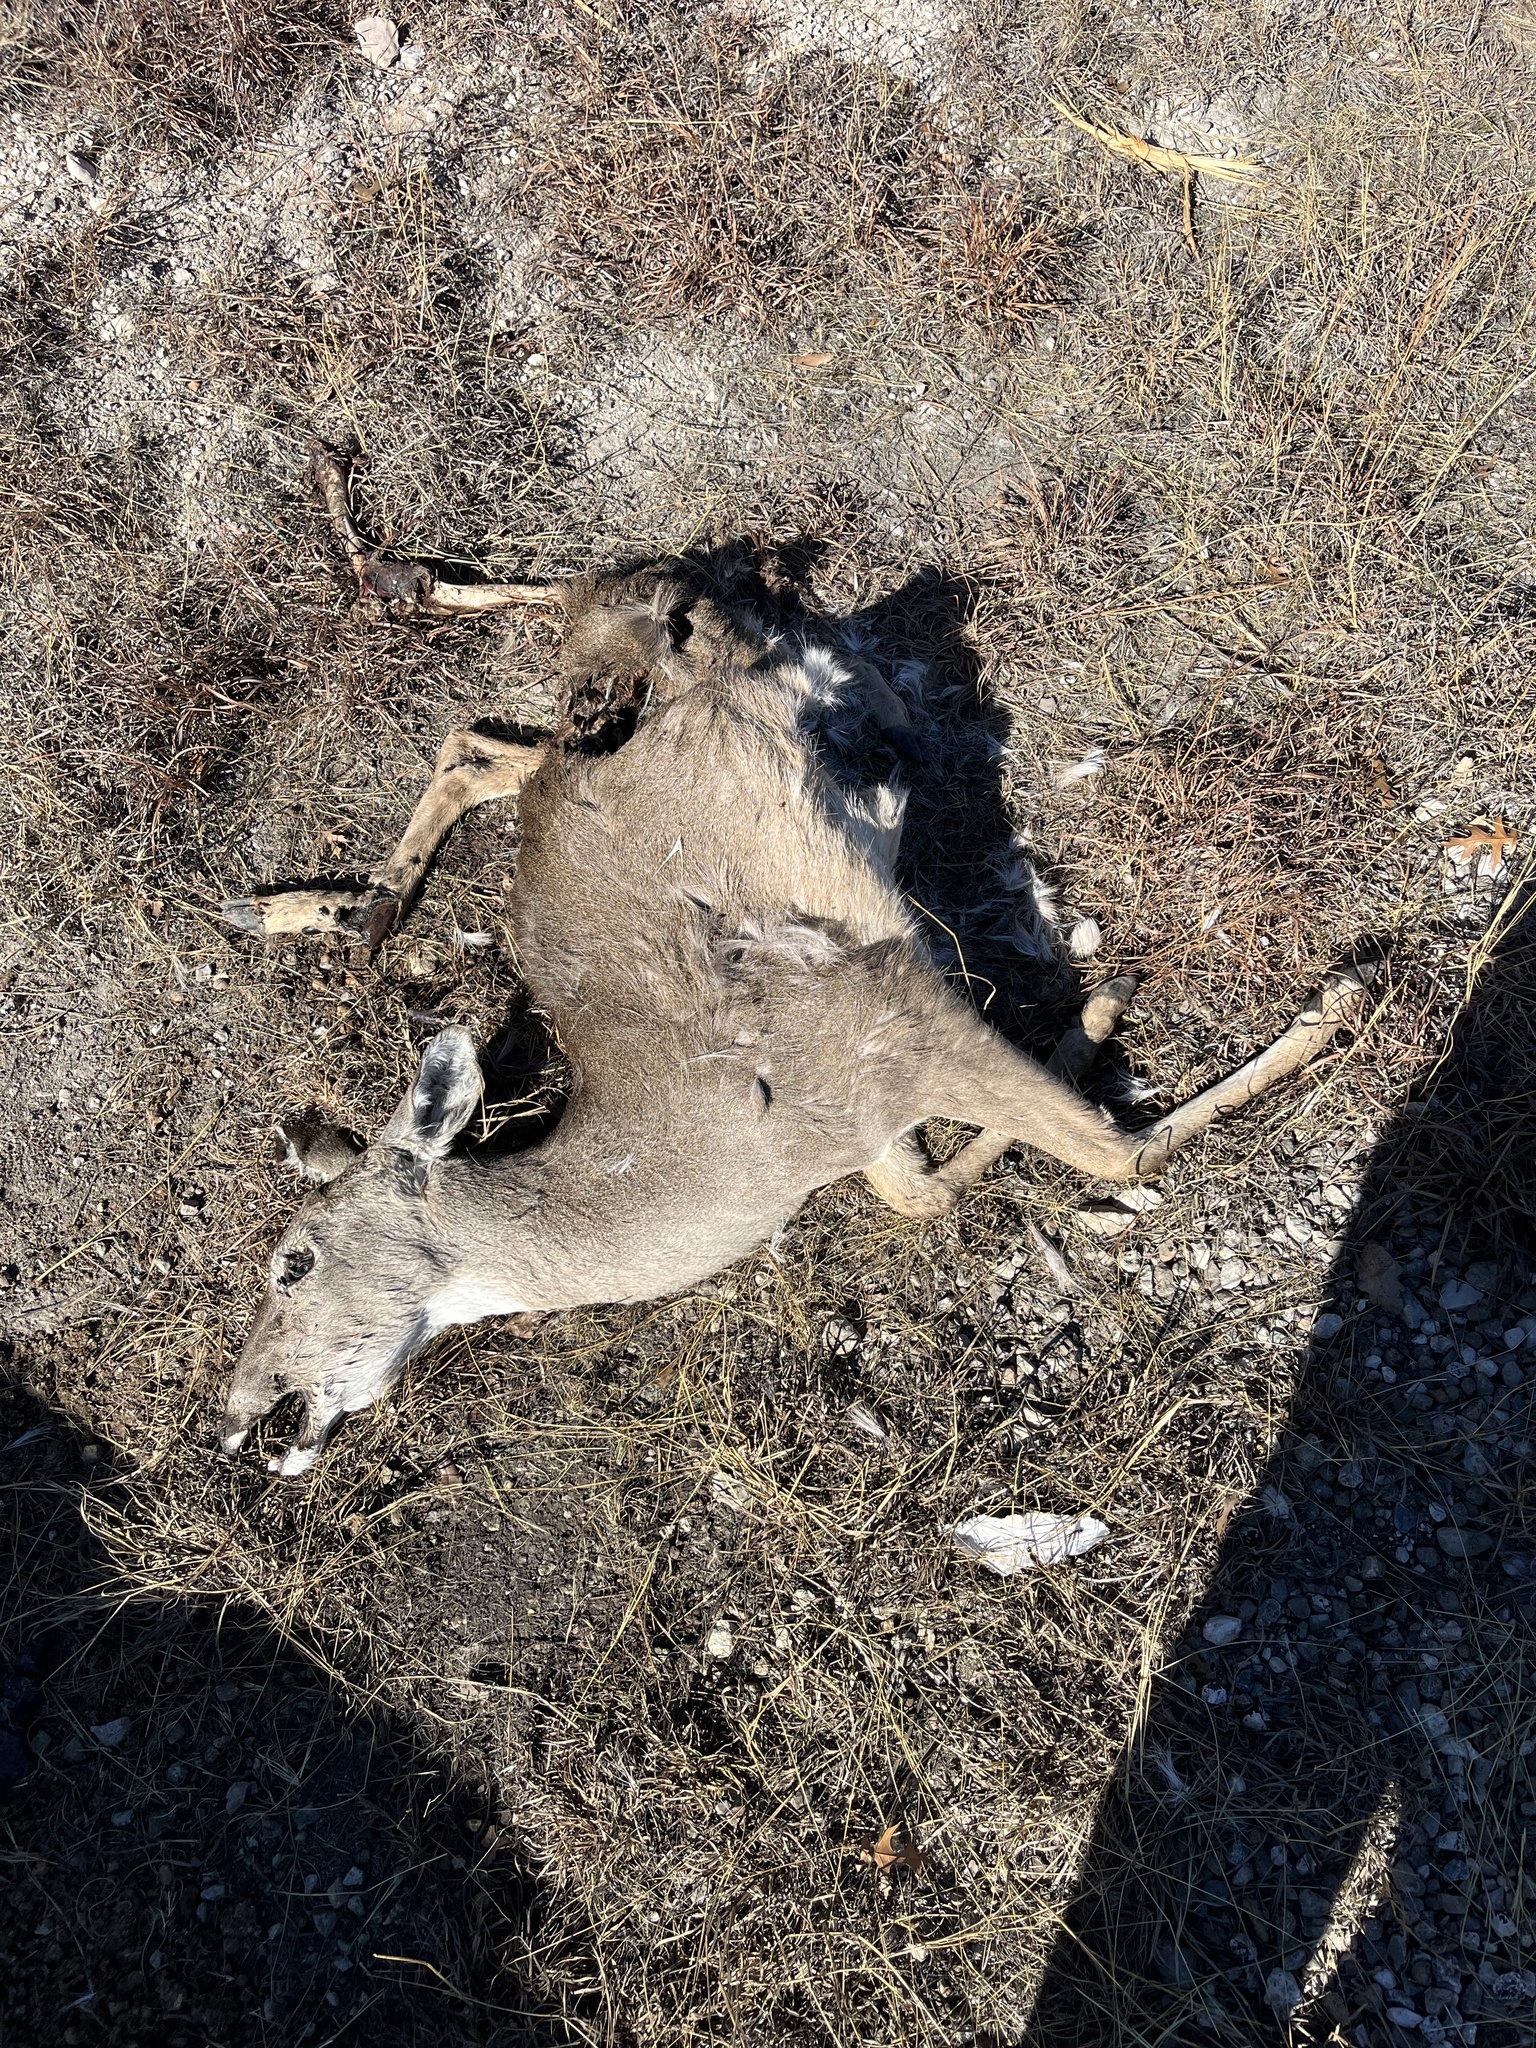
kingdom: Animalia
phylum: Chordata
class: Mammalia
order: Artiodactyla
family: Cervidae
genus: Odocoileus
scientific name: Odocoileus virginianus
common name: White-tailed deer
